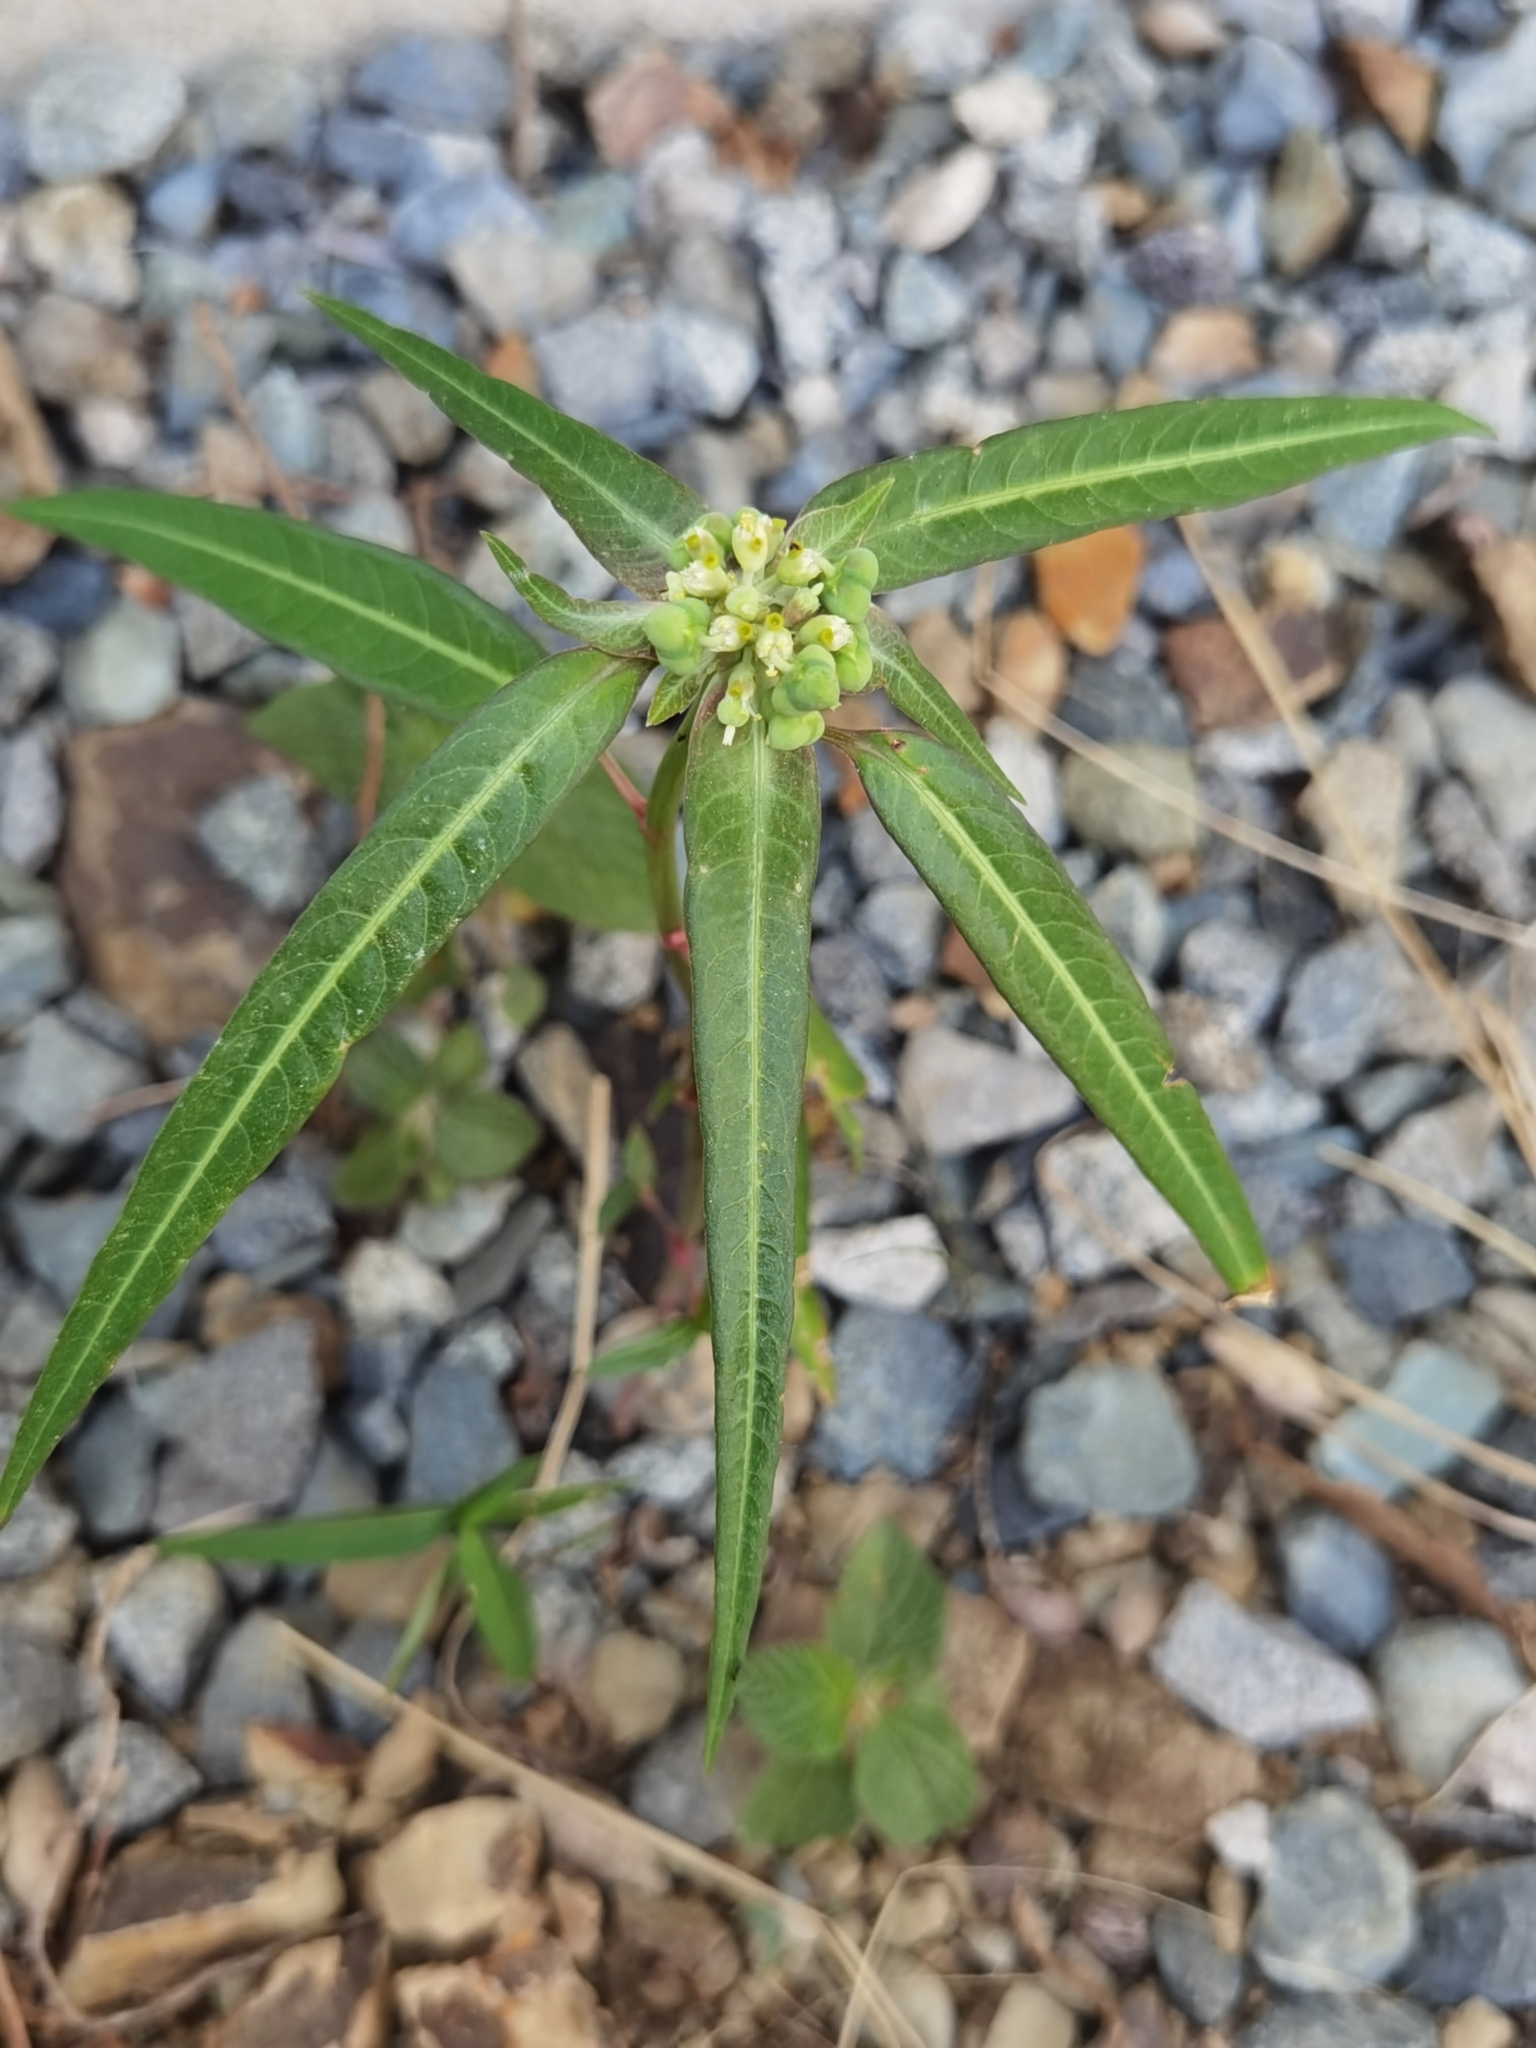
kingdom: Plantae
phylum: Tracheophyta
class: Magnoliopsida
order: Malpighiales
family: Euphorbiaceae
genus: Euphorbia
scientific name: Euphorbia heterophylla
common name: Mexican fireplant
